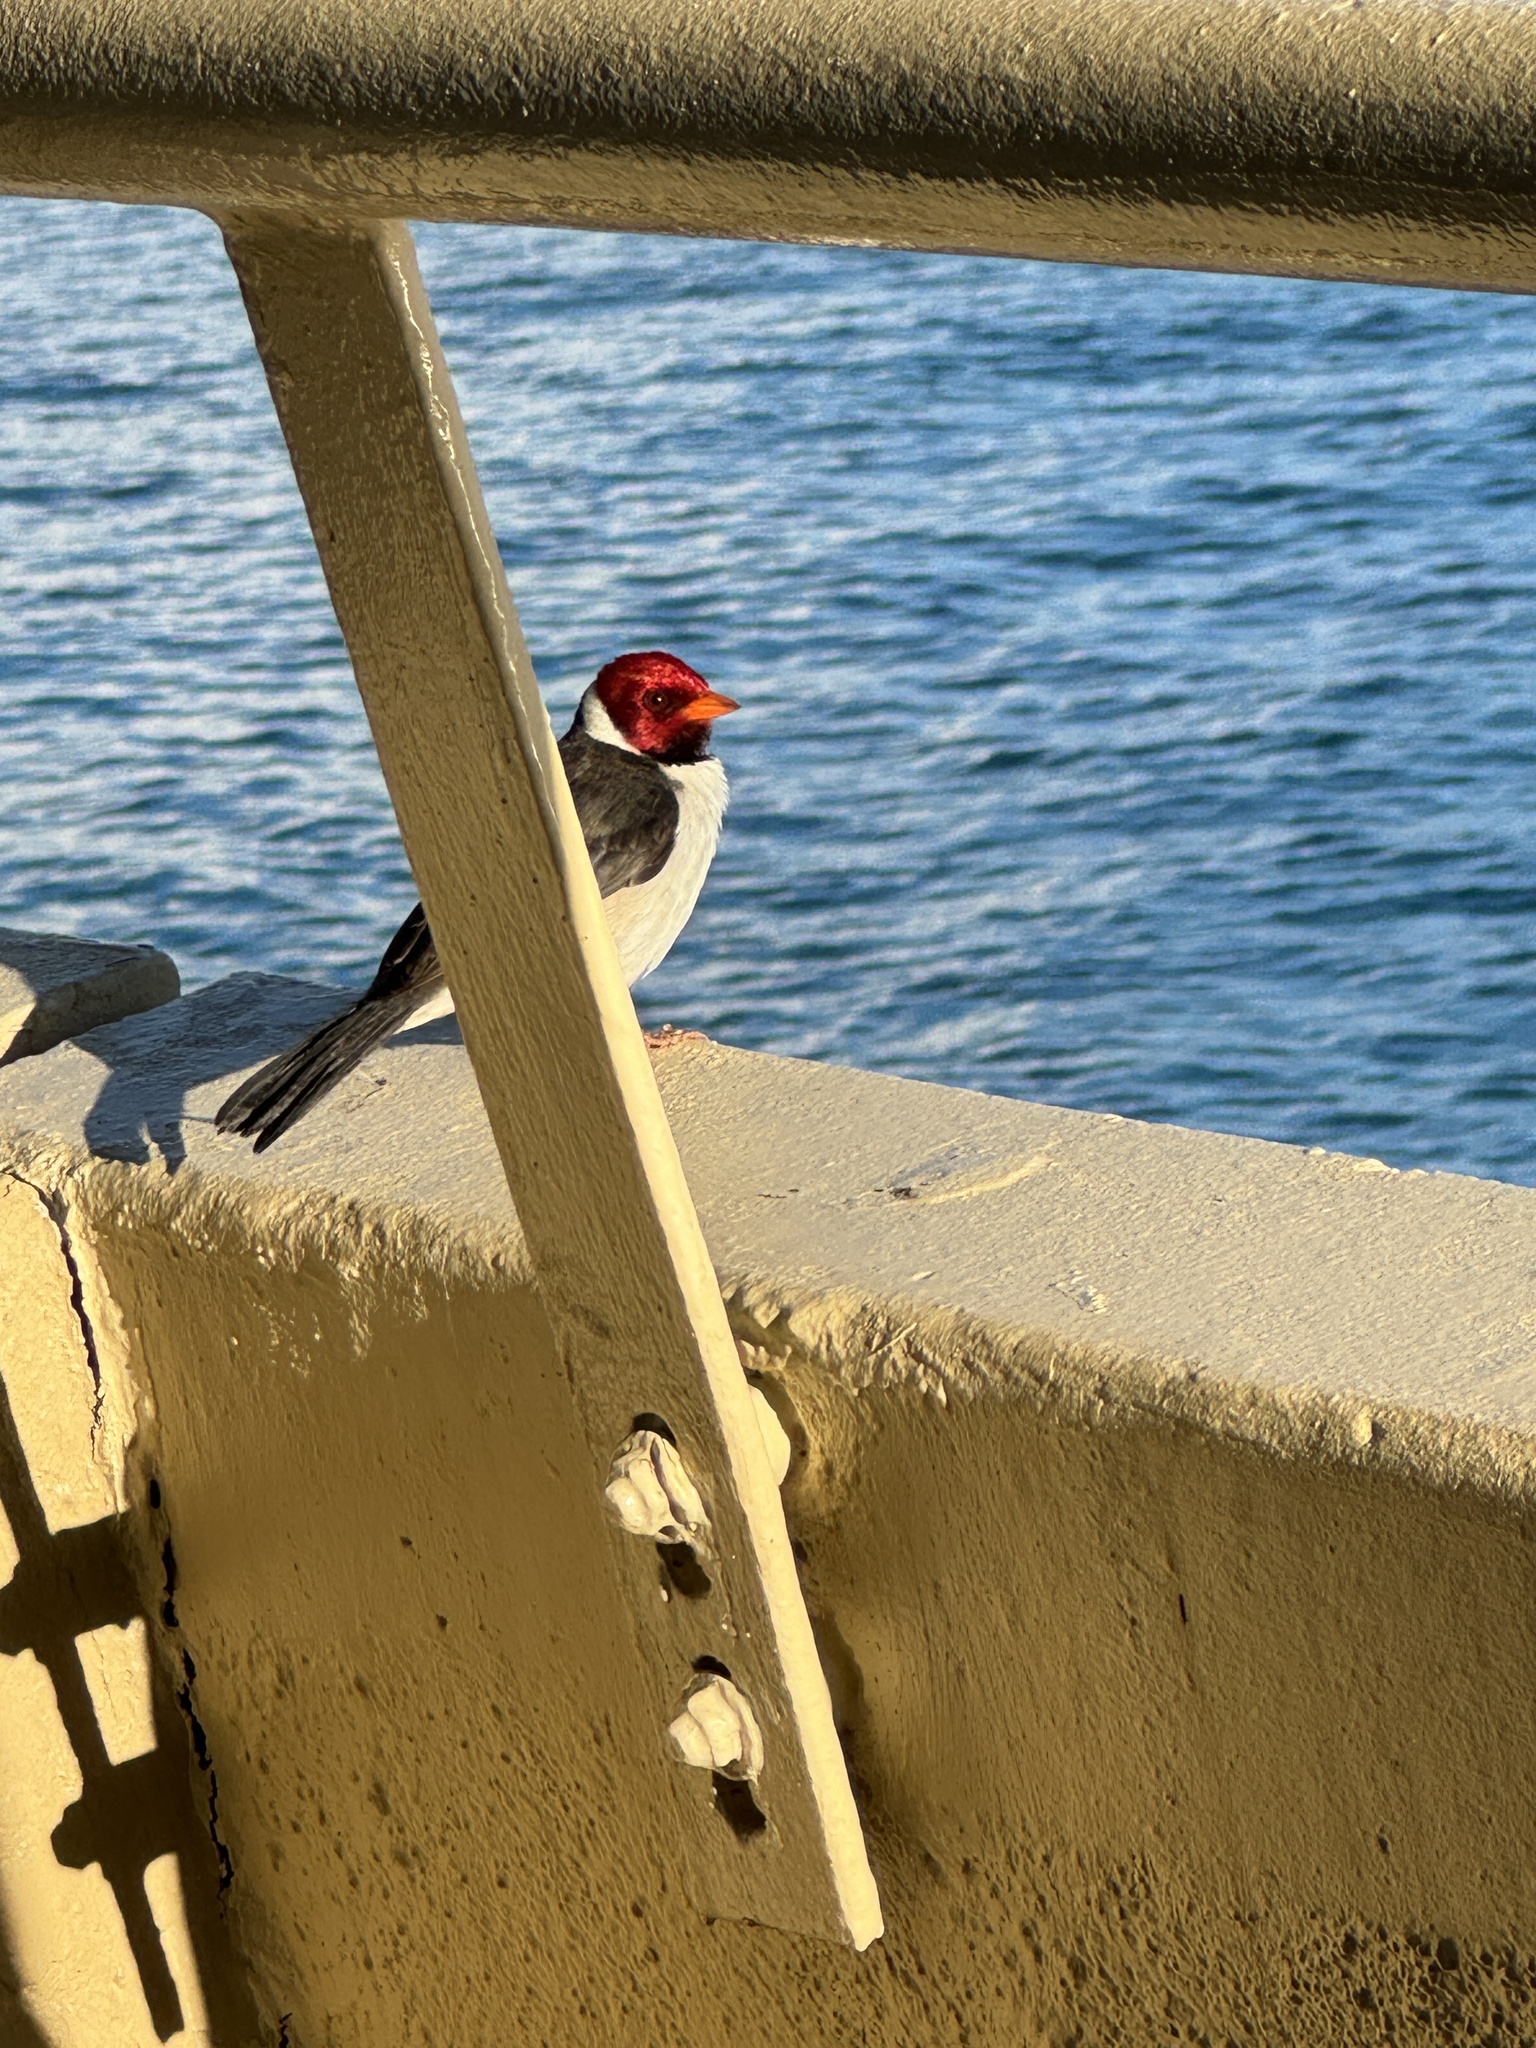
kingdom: Animalia
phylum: Chordata
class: Aves
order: Passeriformes
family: Thraupidae
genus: Paroaria
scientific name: Paroaria capitata
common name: Yellow-billed cardinal
